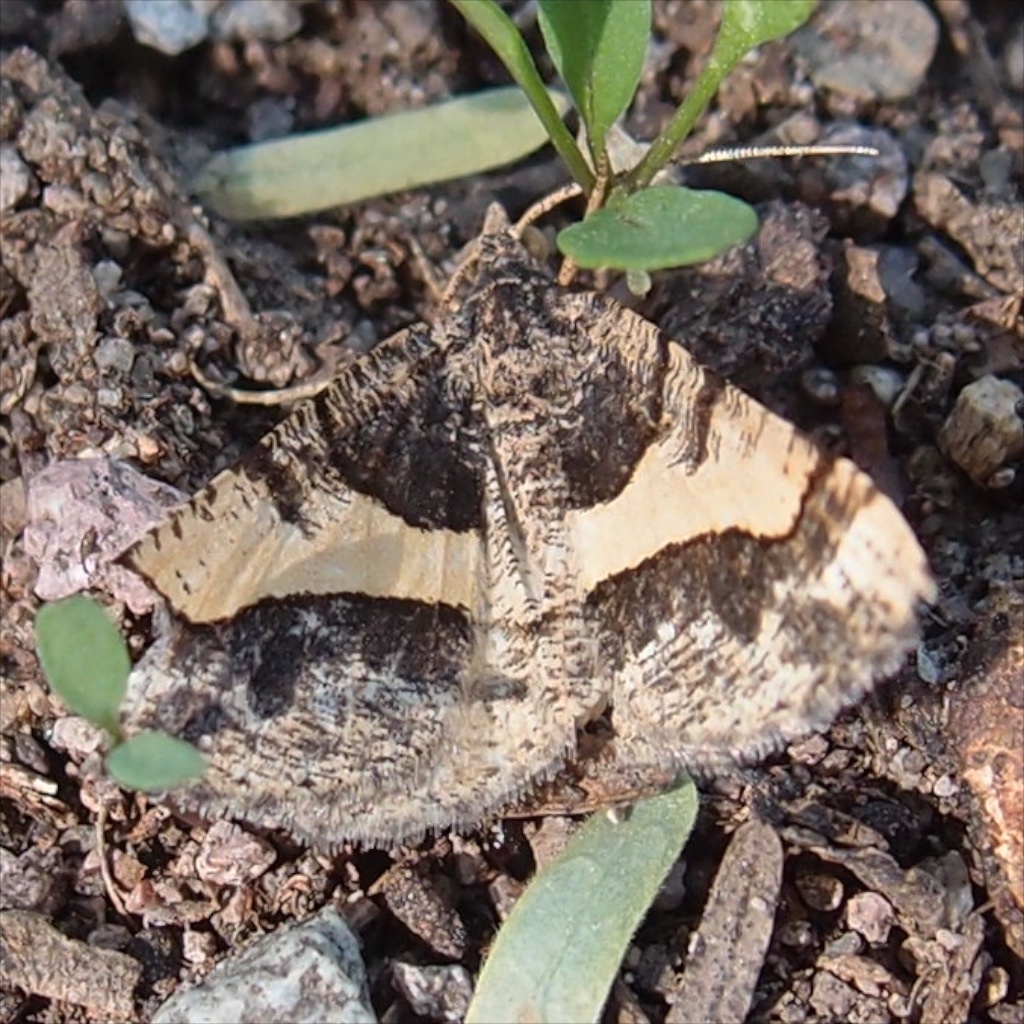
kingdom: Animalia
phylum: Arthropoda
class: Insecta
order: Lepidoptera
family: Geometridae
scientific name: Geometridae
